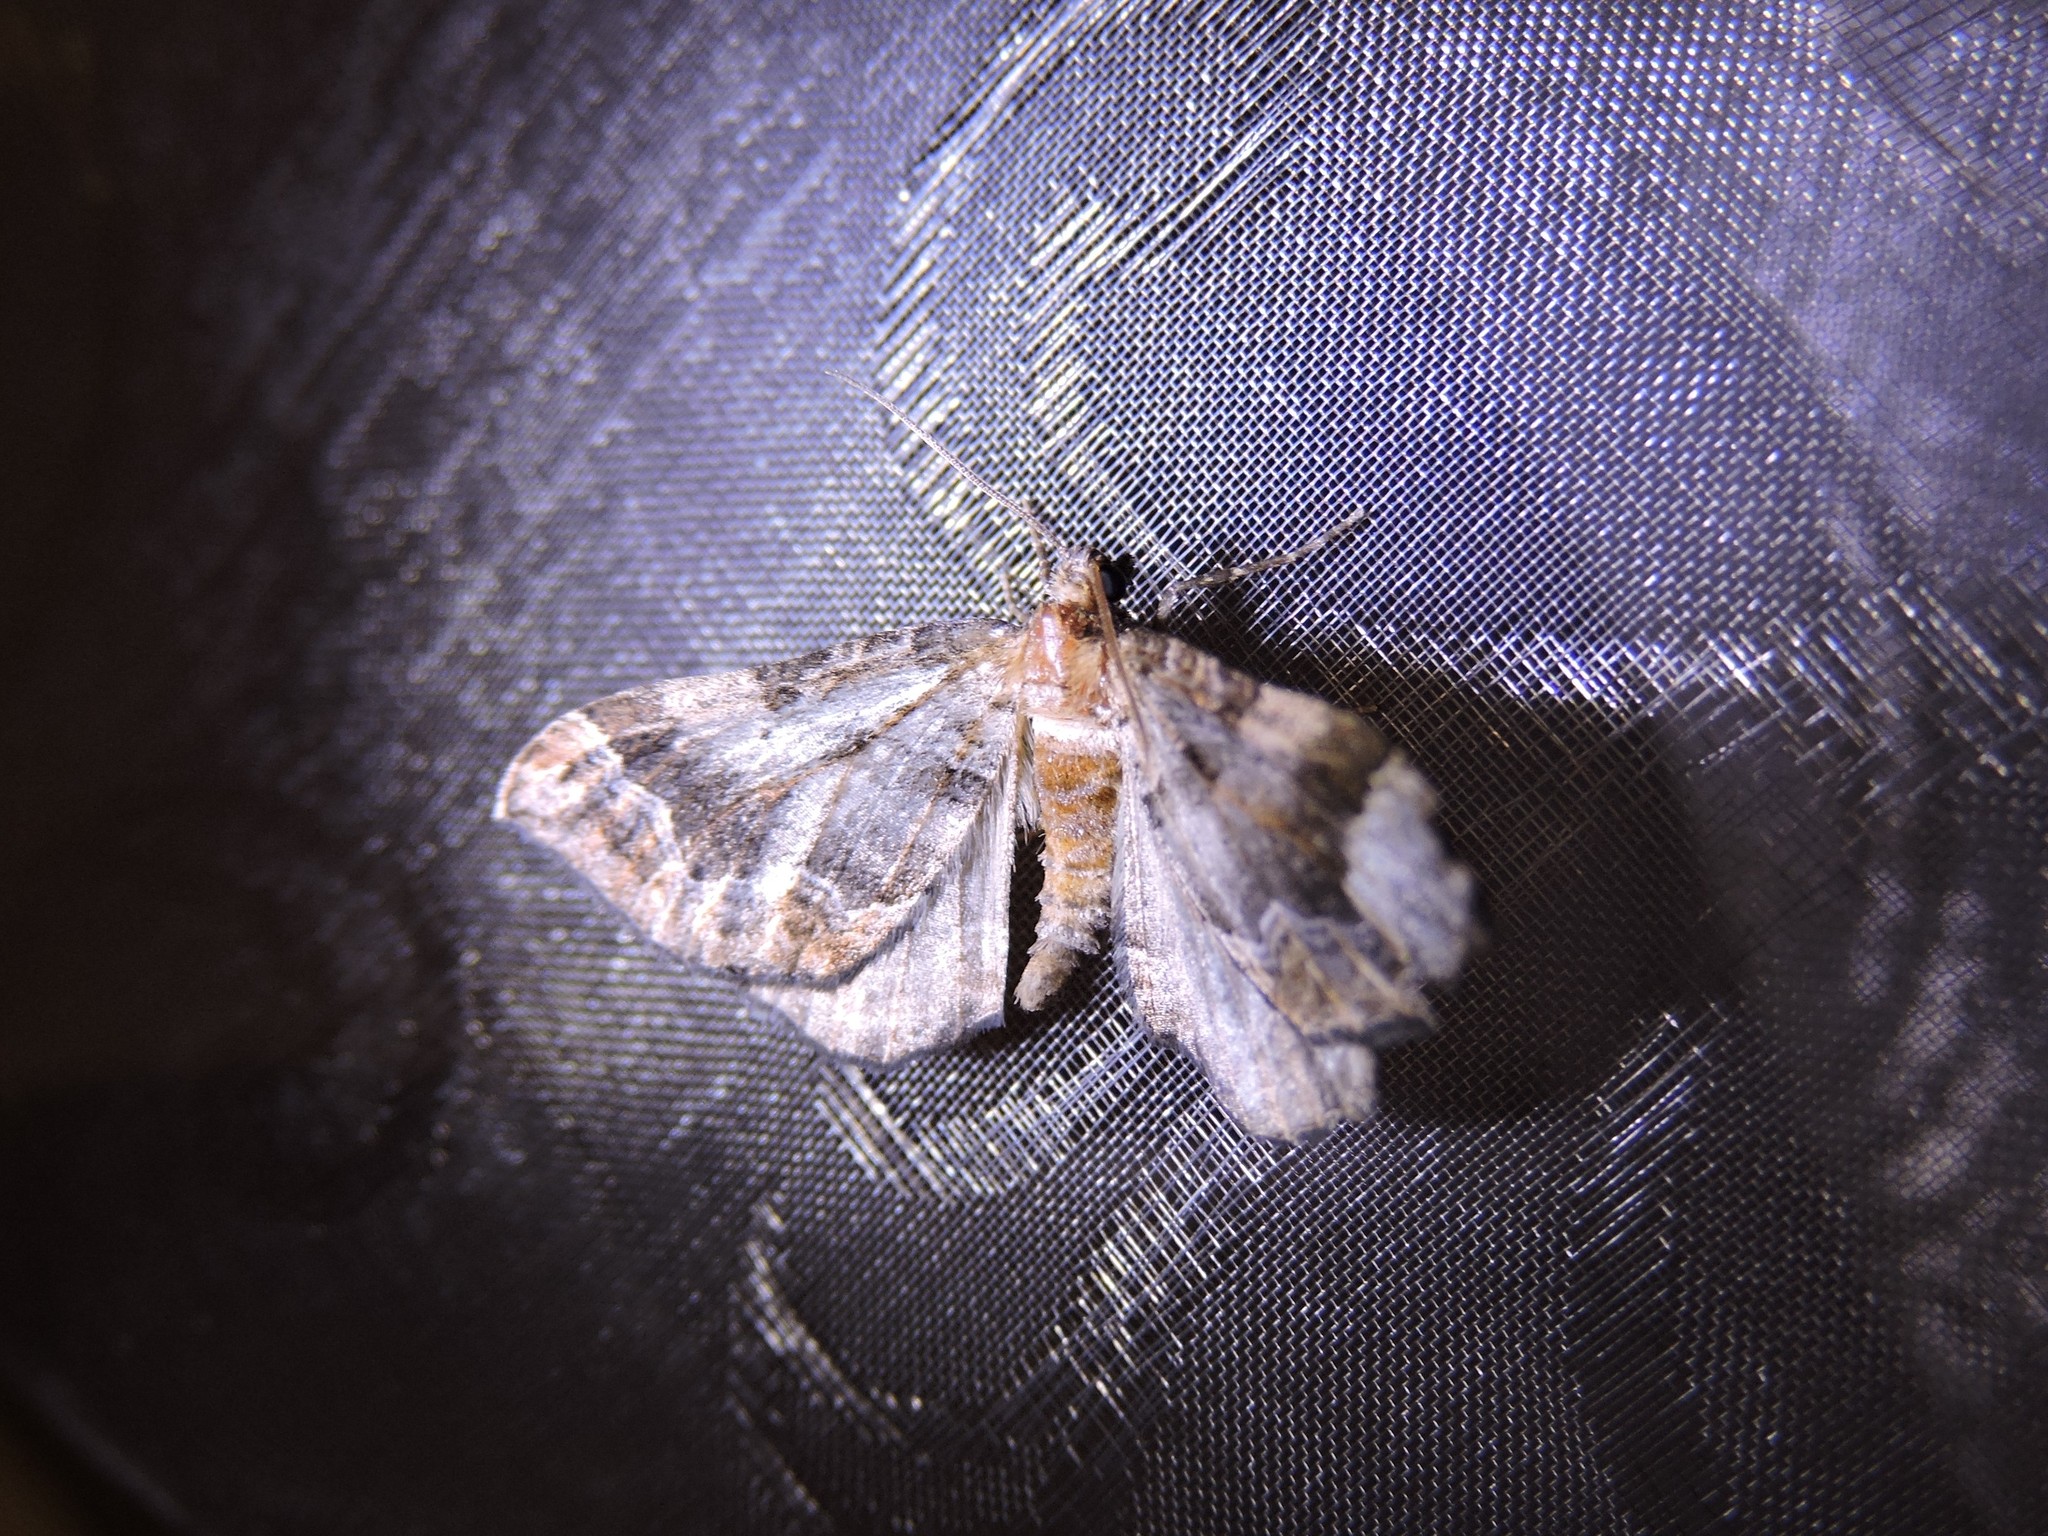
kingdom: Animalia
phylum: Arthropoda
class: Insecta
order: Lepidoptera
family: Geometridae
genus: Pelurga
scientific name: Pelurga comitata
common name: Dark spinach
